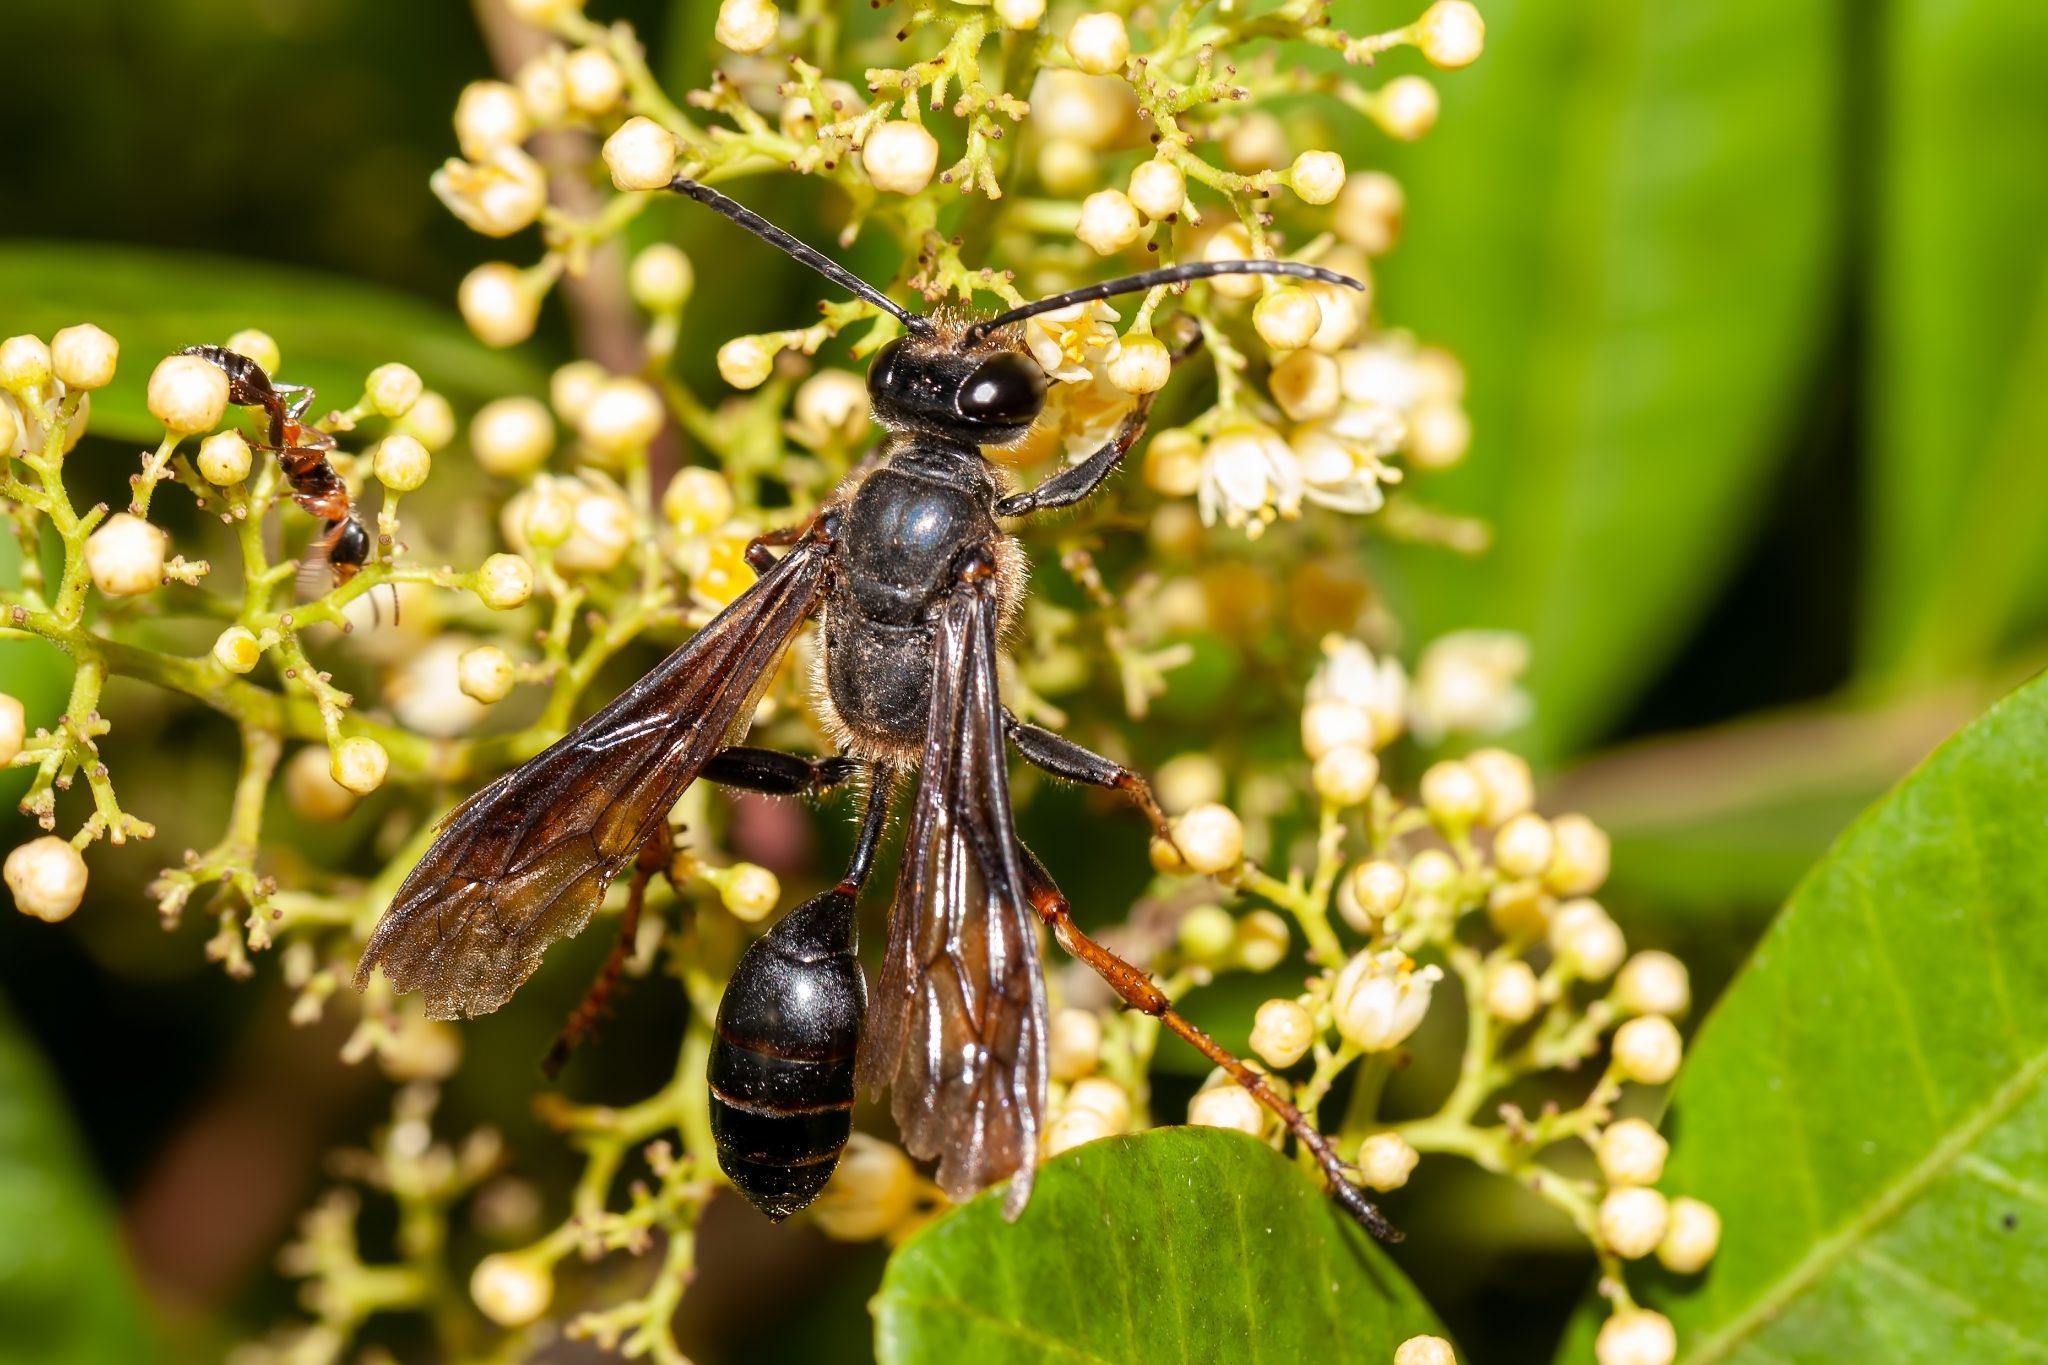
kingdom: Animalia
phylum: Arthropoda
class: Insecta
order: Hymenoptera
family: Sphecidae
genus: Isodontia
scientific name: Isodontia auripes
